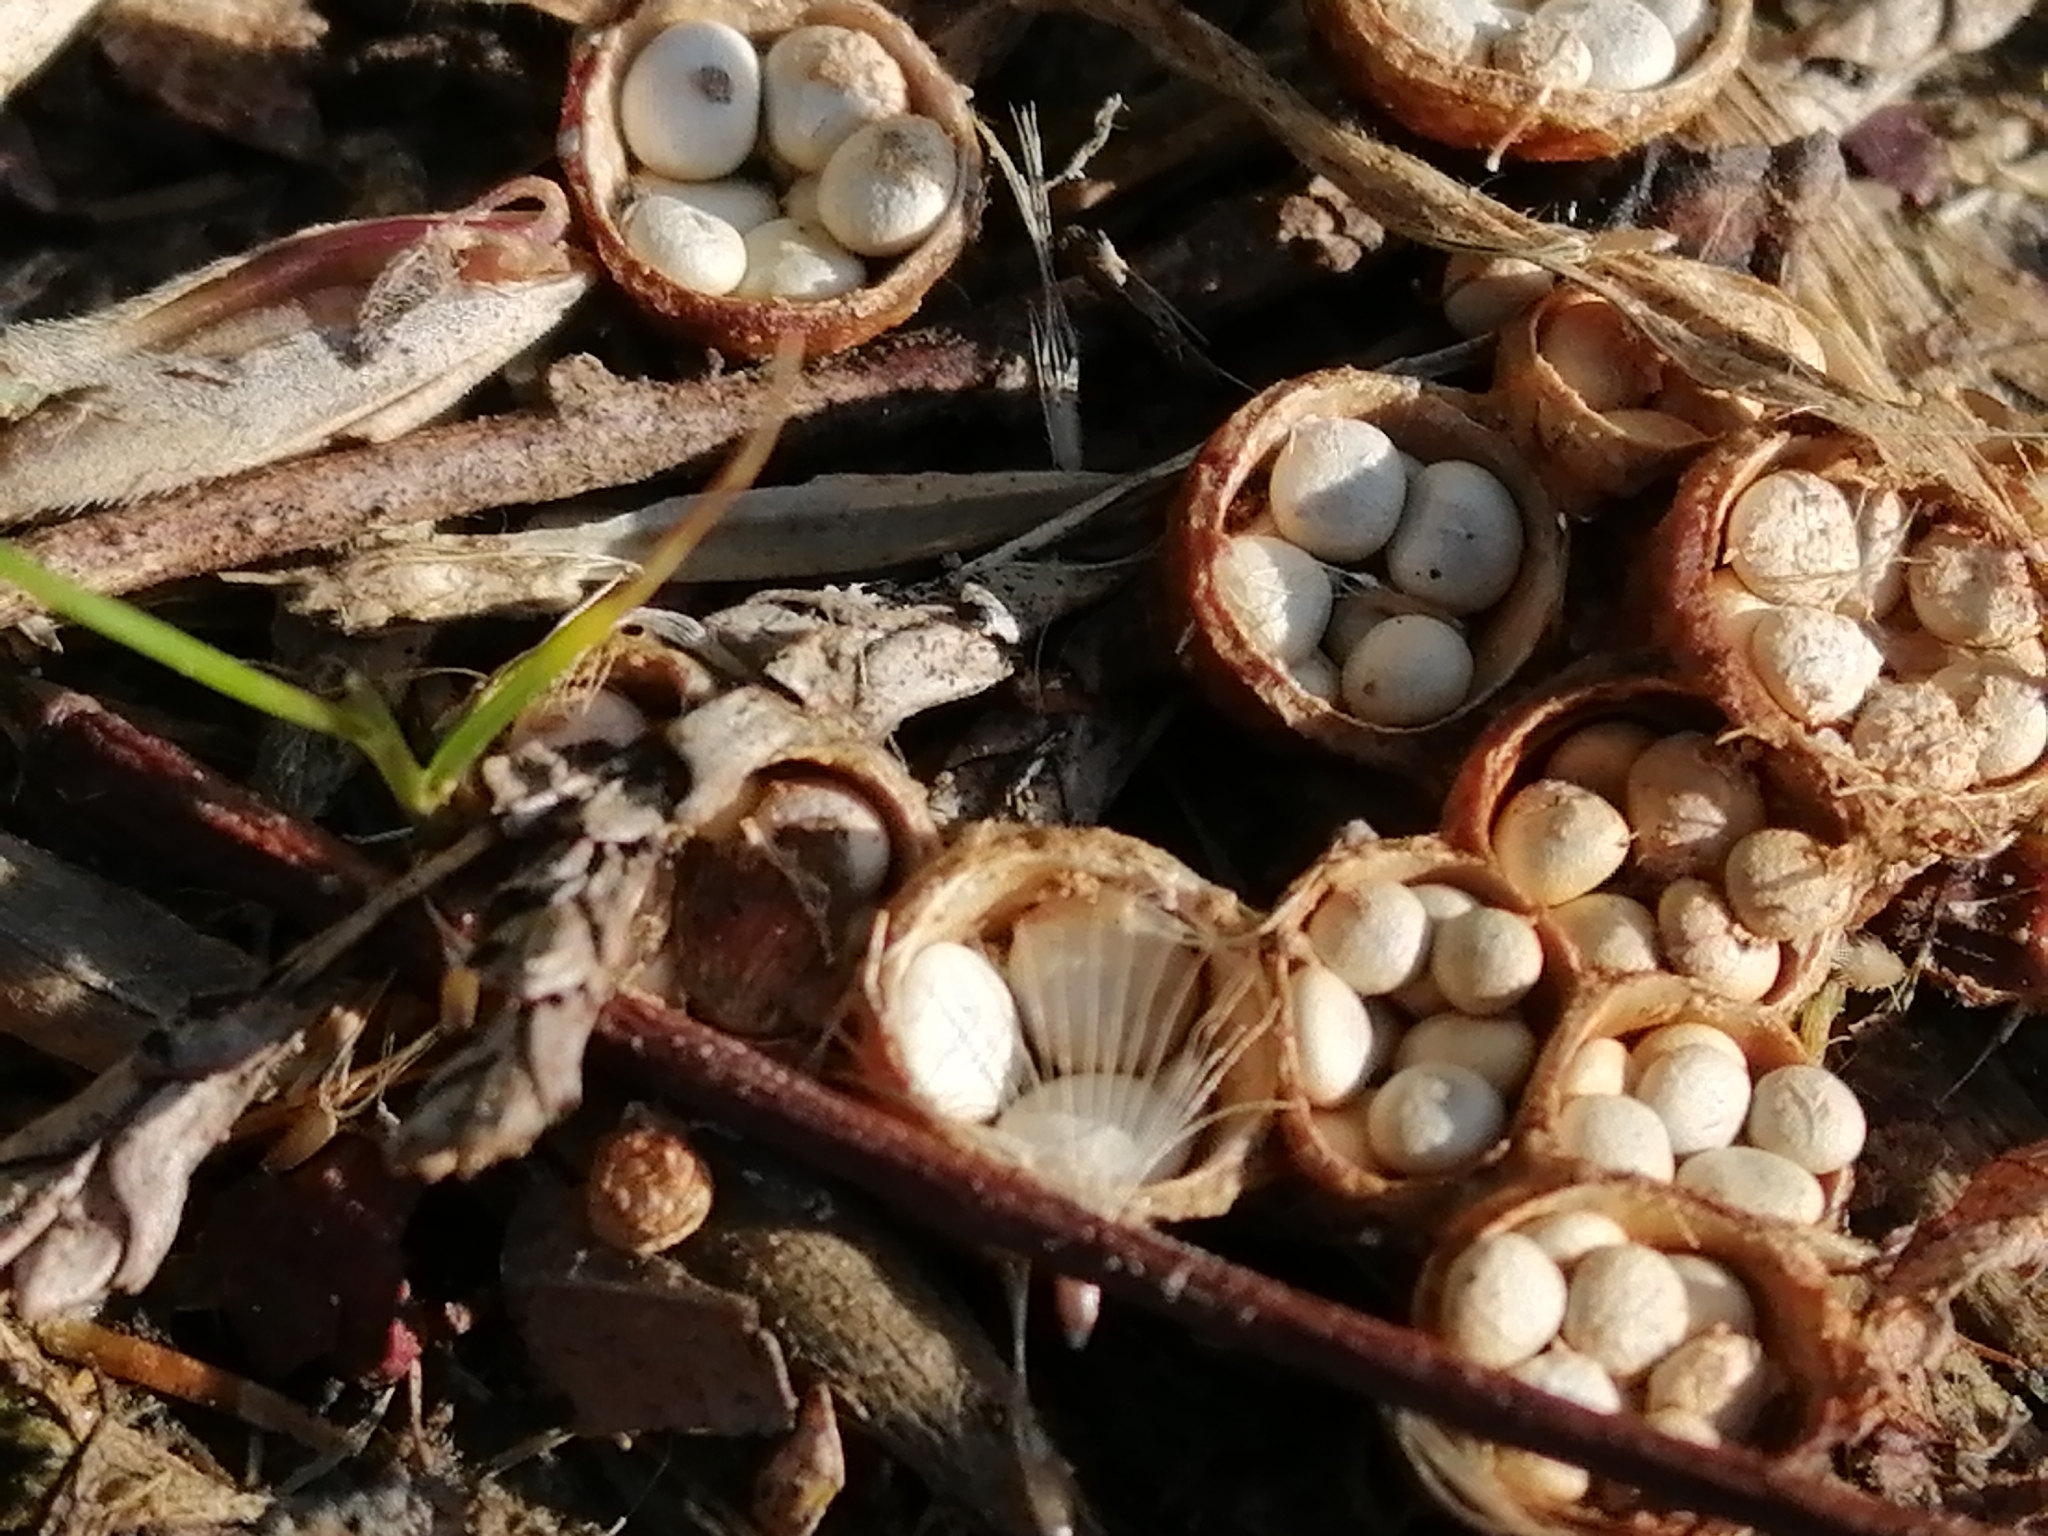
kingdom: Fungi
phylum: Basidiomycota
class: Agaricomycetes
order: Agaricales
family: Nidulariaceae
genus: Crucibulum
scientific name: Crucibulum simile
